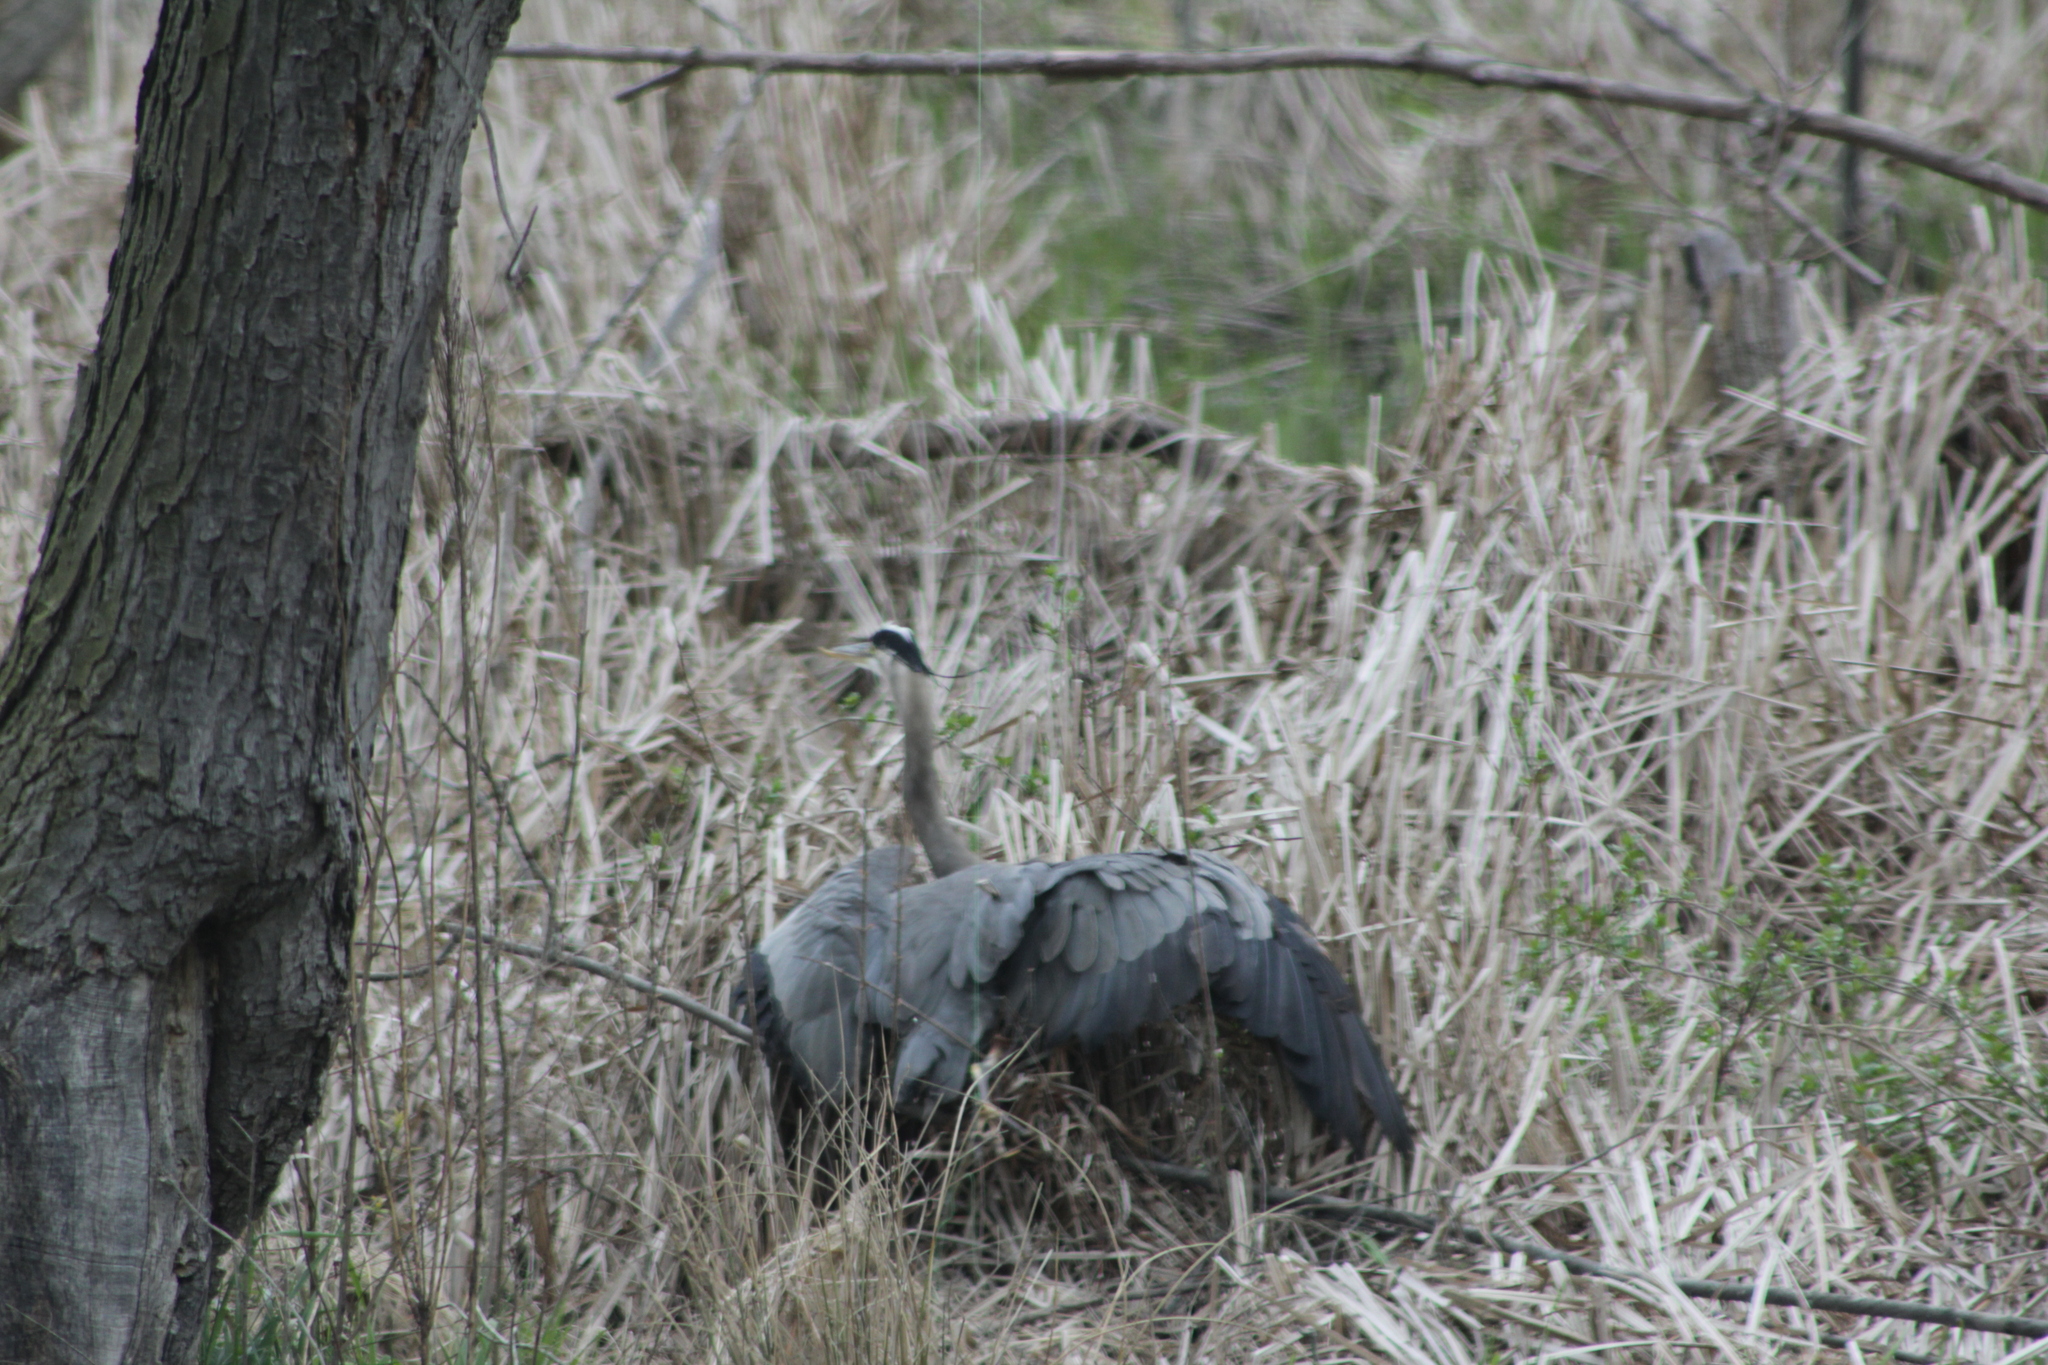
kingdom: Animalia
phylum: Chordata
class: Aves
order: Pelecaniformes
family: Ardeidae
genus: Ardea
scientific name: Ardea herodias
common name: Great blue heron
